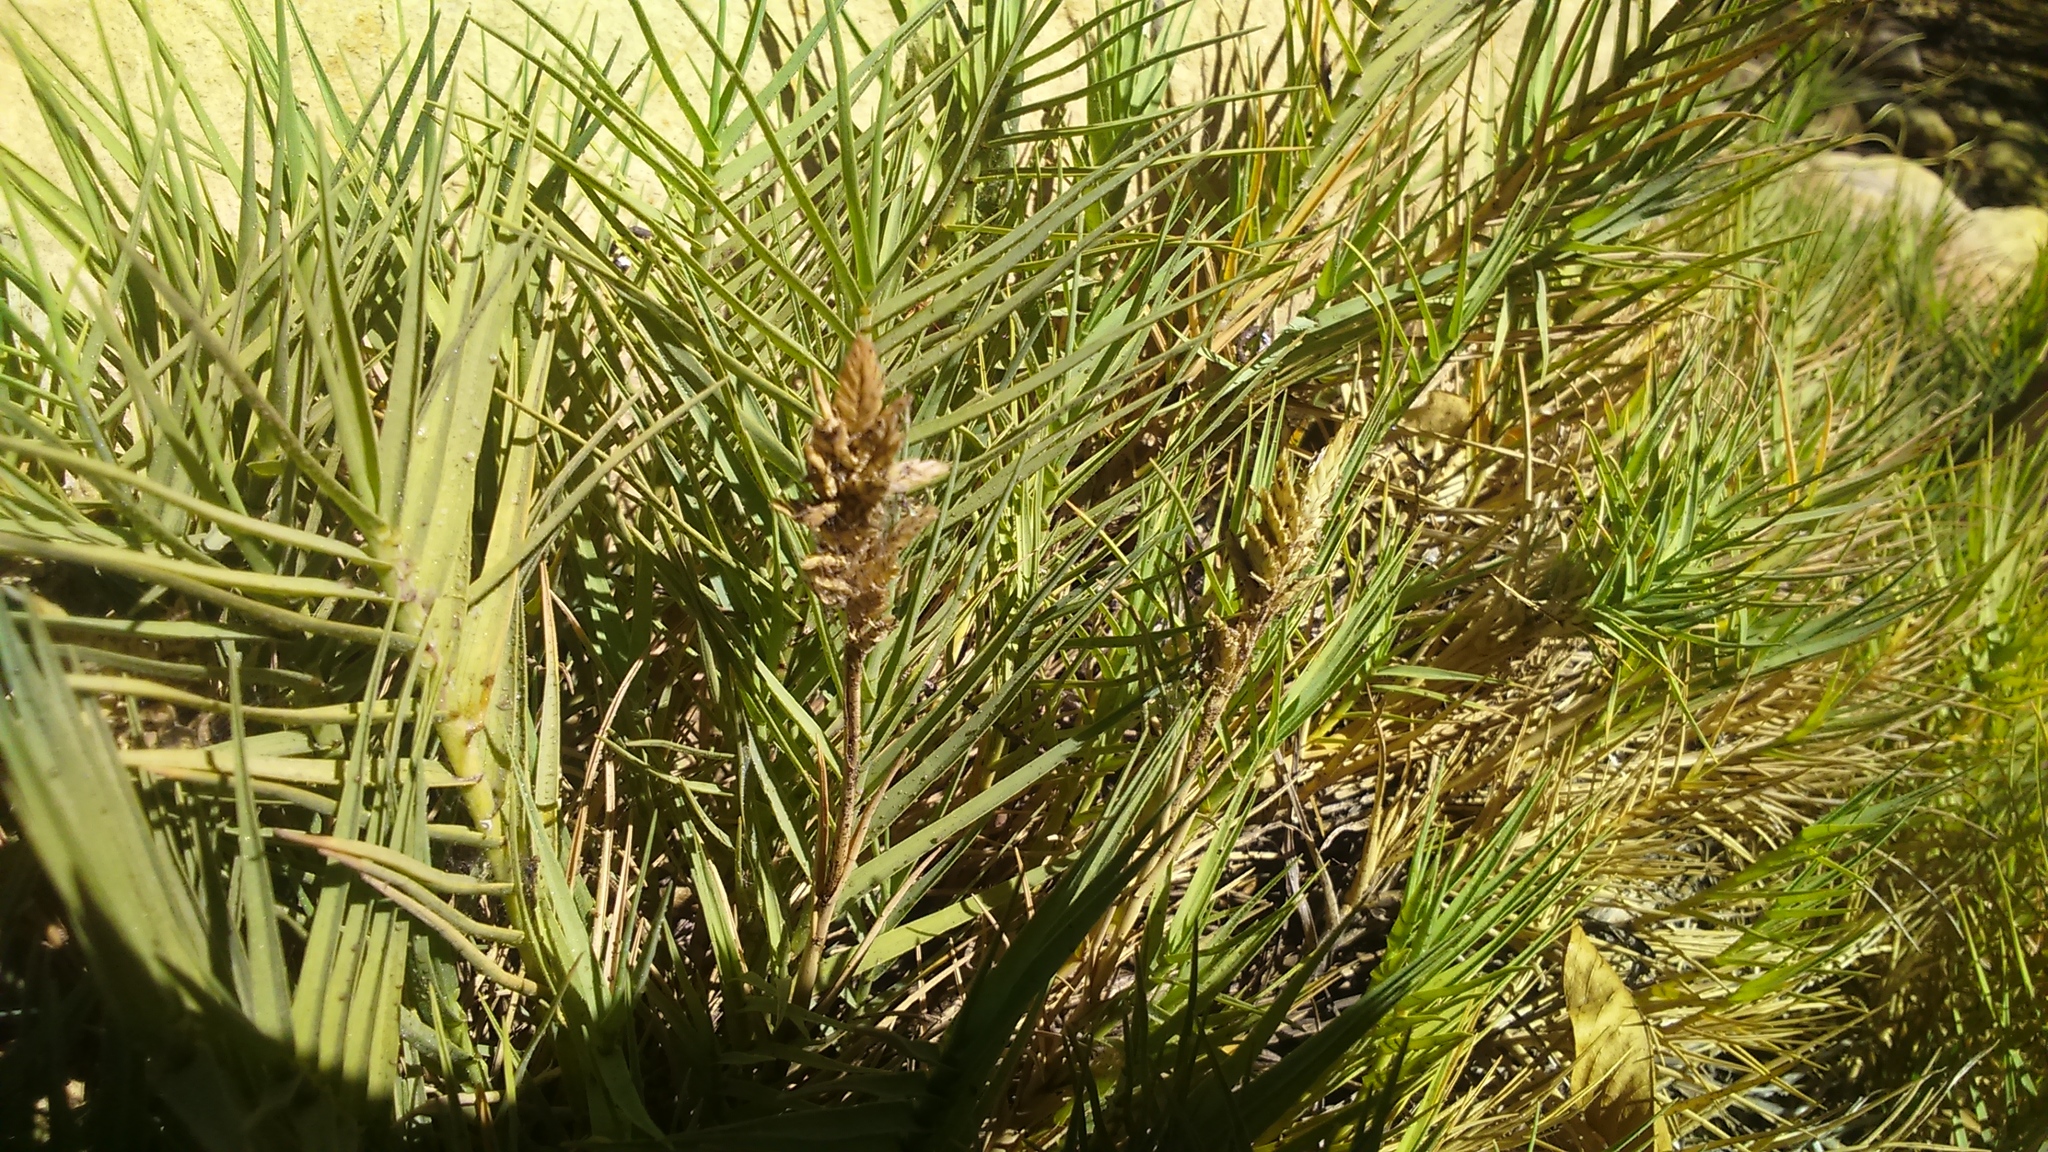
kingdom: Plantae
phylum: Tracheophyta
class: Liliopsida
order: Poales
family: Poaceae
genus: Distichlis
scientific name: Distichlis spicata
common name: Saltgrass
